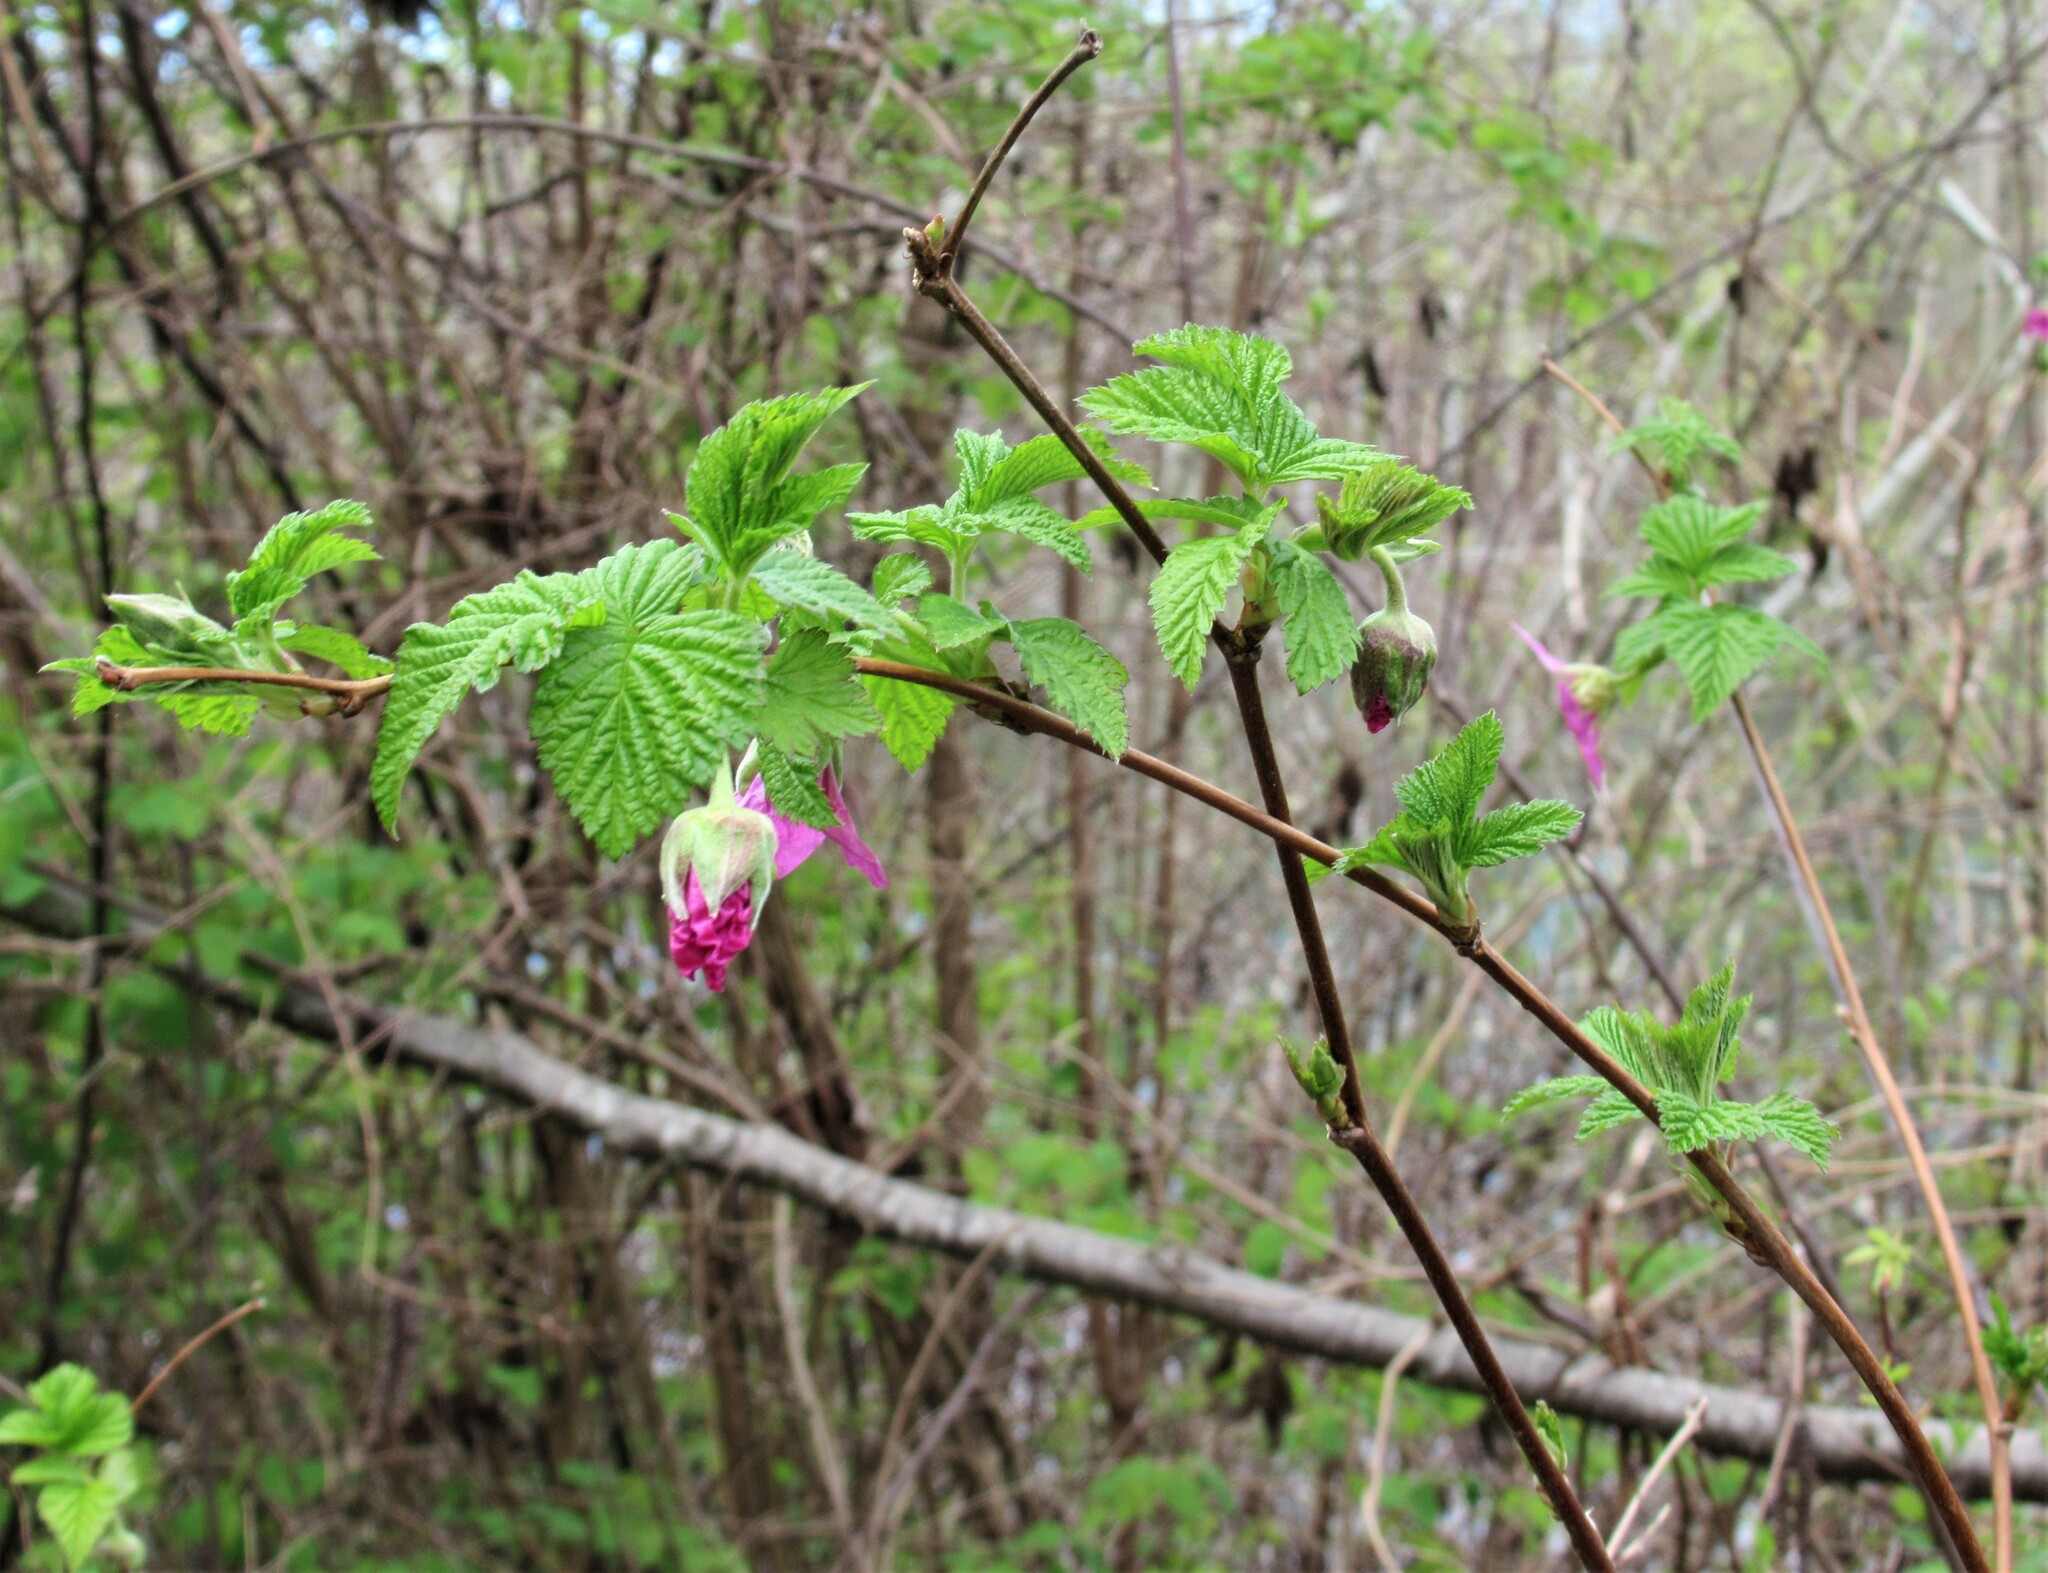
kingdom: Plantae
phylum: Tracheophyta
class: Magnoliopsida
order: Rosales
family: Rosaceae
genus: Rubus
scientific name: Rubus spectabilis
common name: Salmonberry
